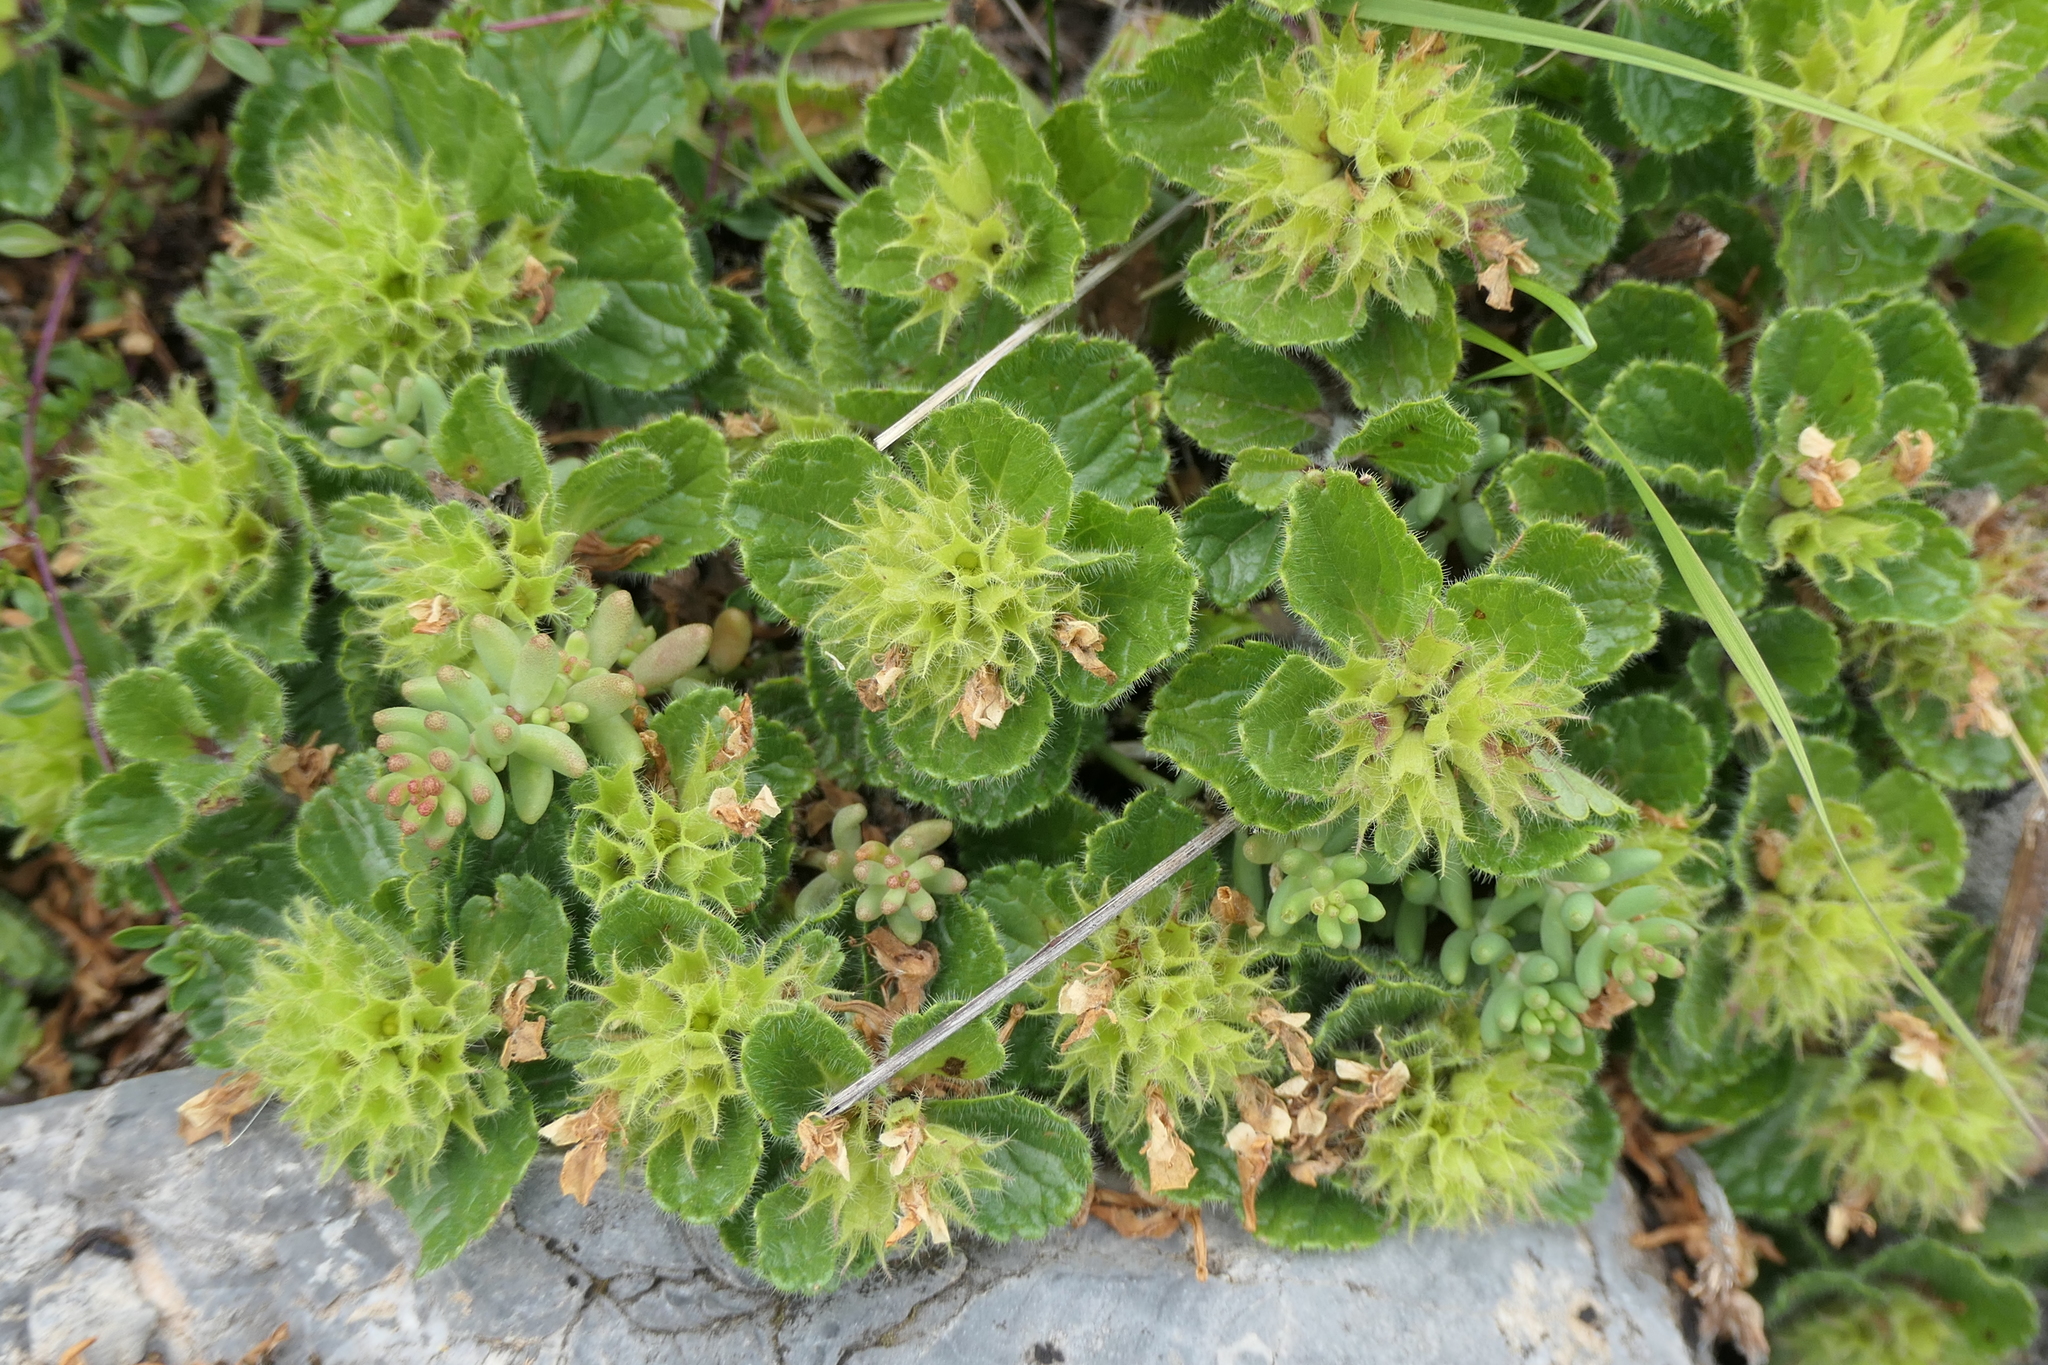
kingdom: Plantae
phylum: Tracheophyta
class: Magnoliopsida
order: Lamiales
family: Lamiaceae
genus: Teucrium
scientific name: Teucrium pyrenaicum
